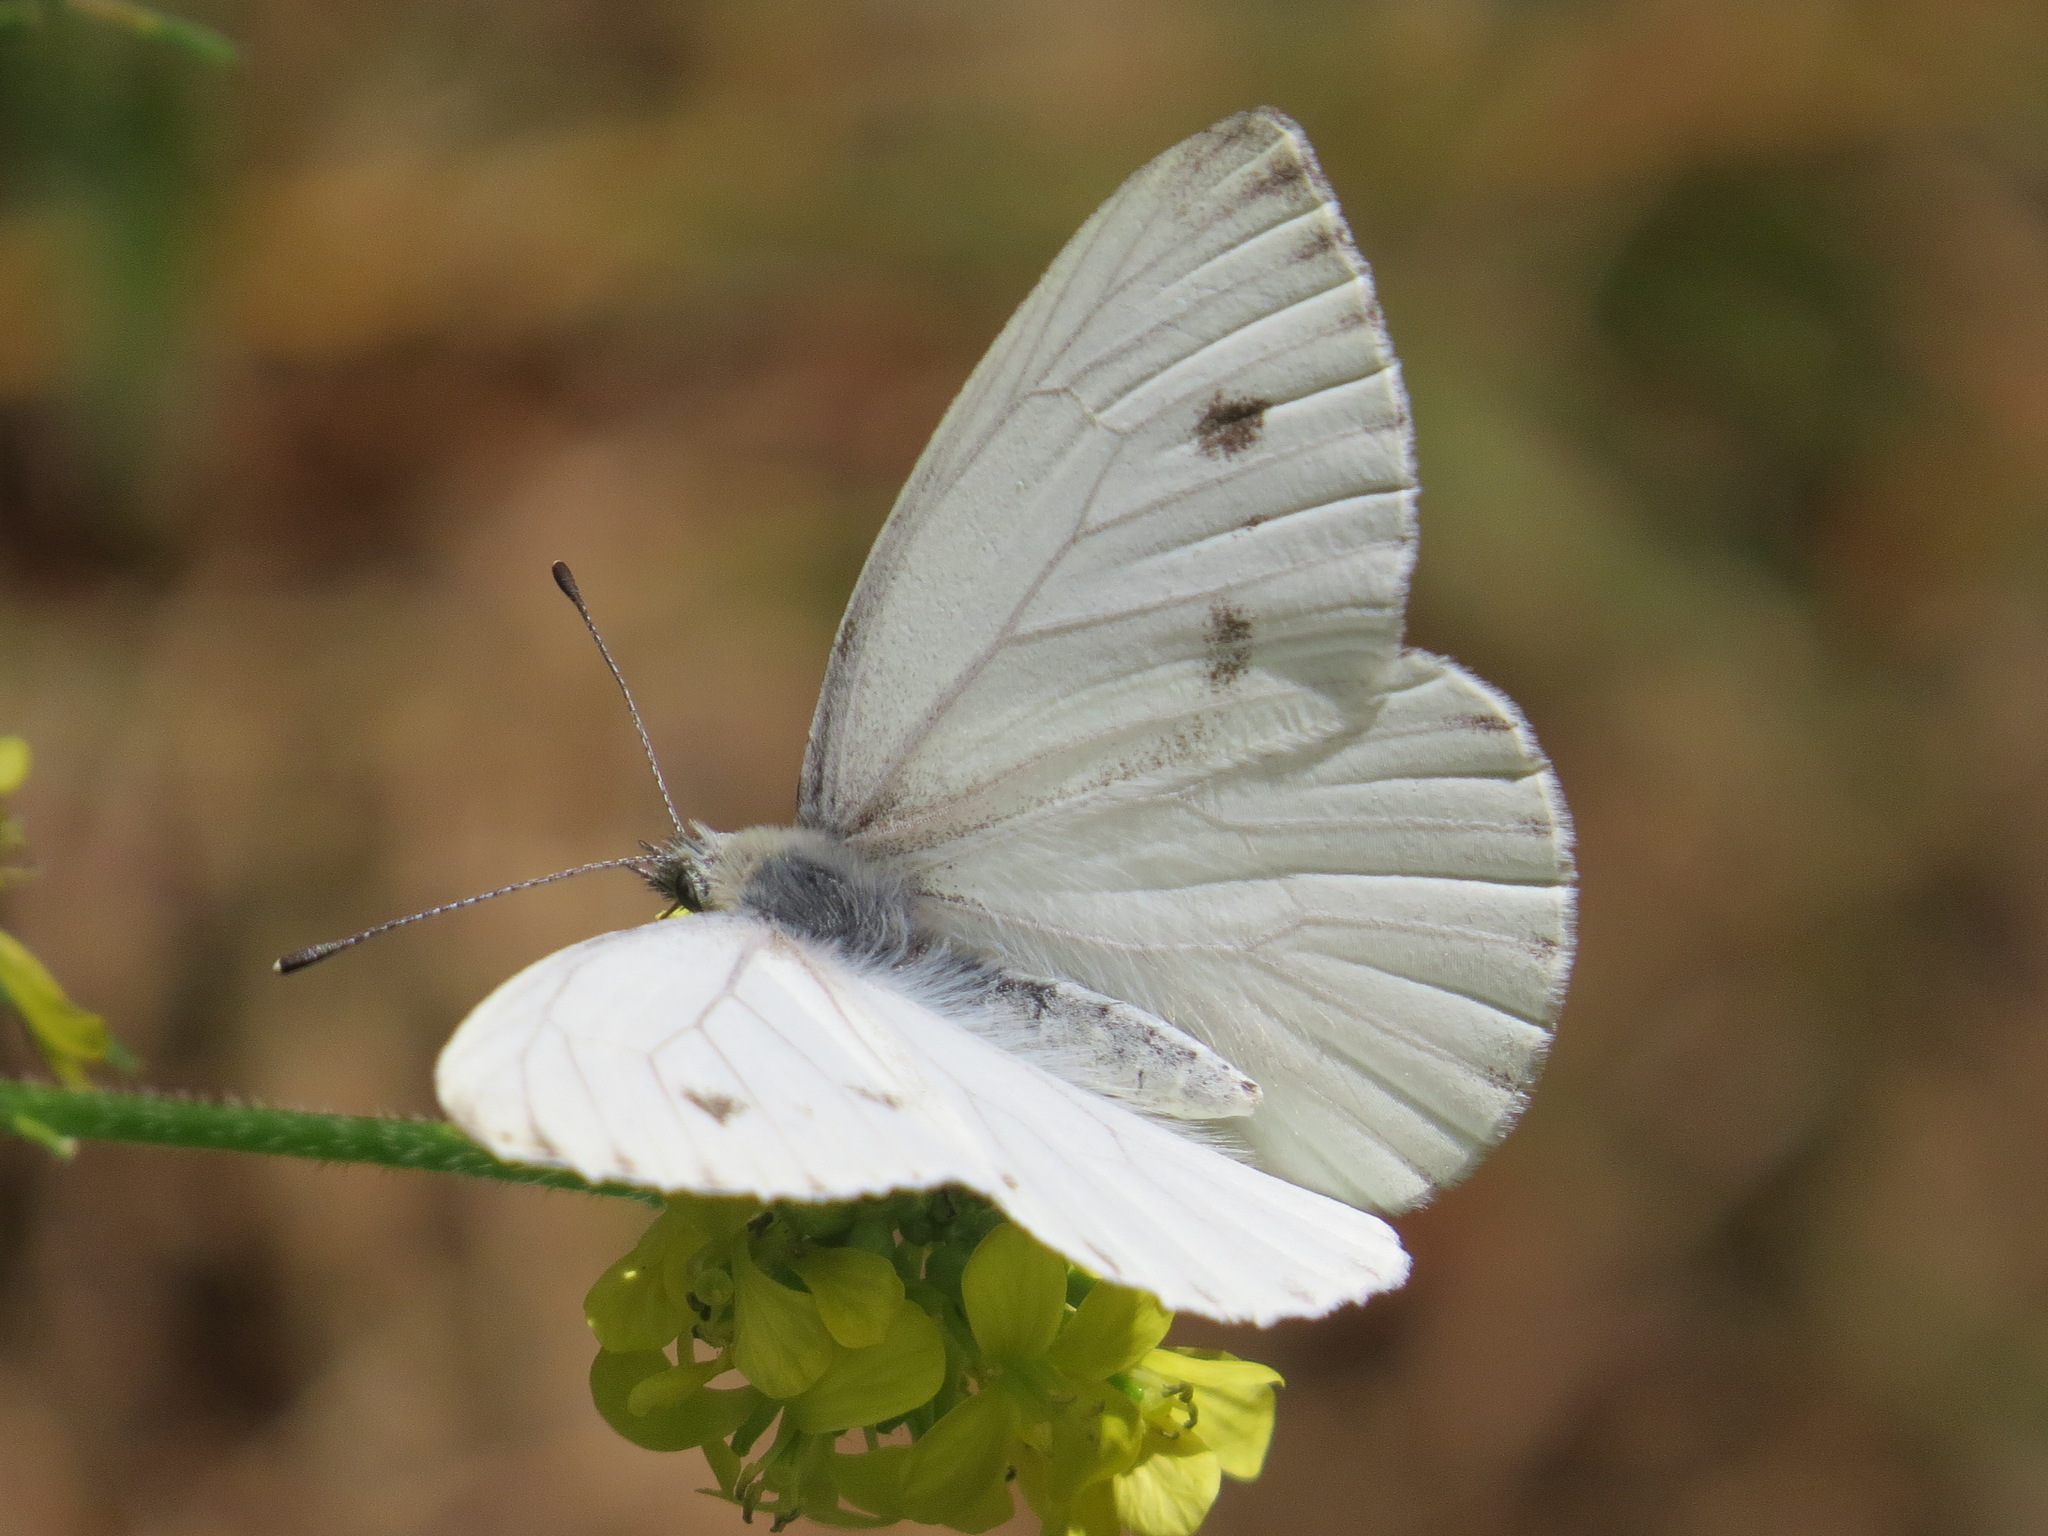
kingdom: Animalia
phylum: Arthropoda
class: Insecta
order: Lepidoptera
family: Pieridae
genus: Pieris
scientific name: Pieris marginalis
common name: Margined white
